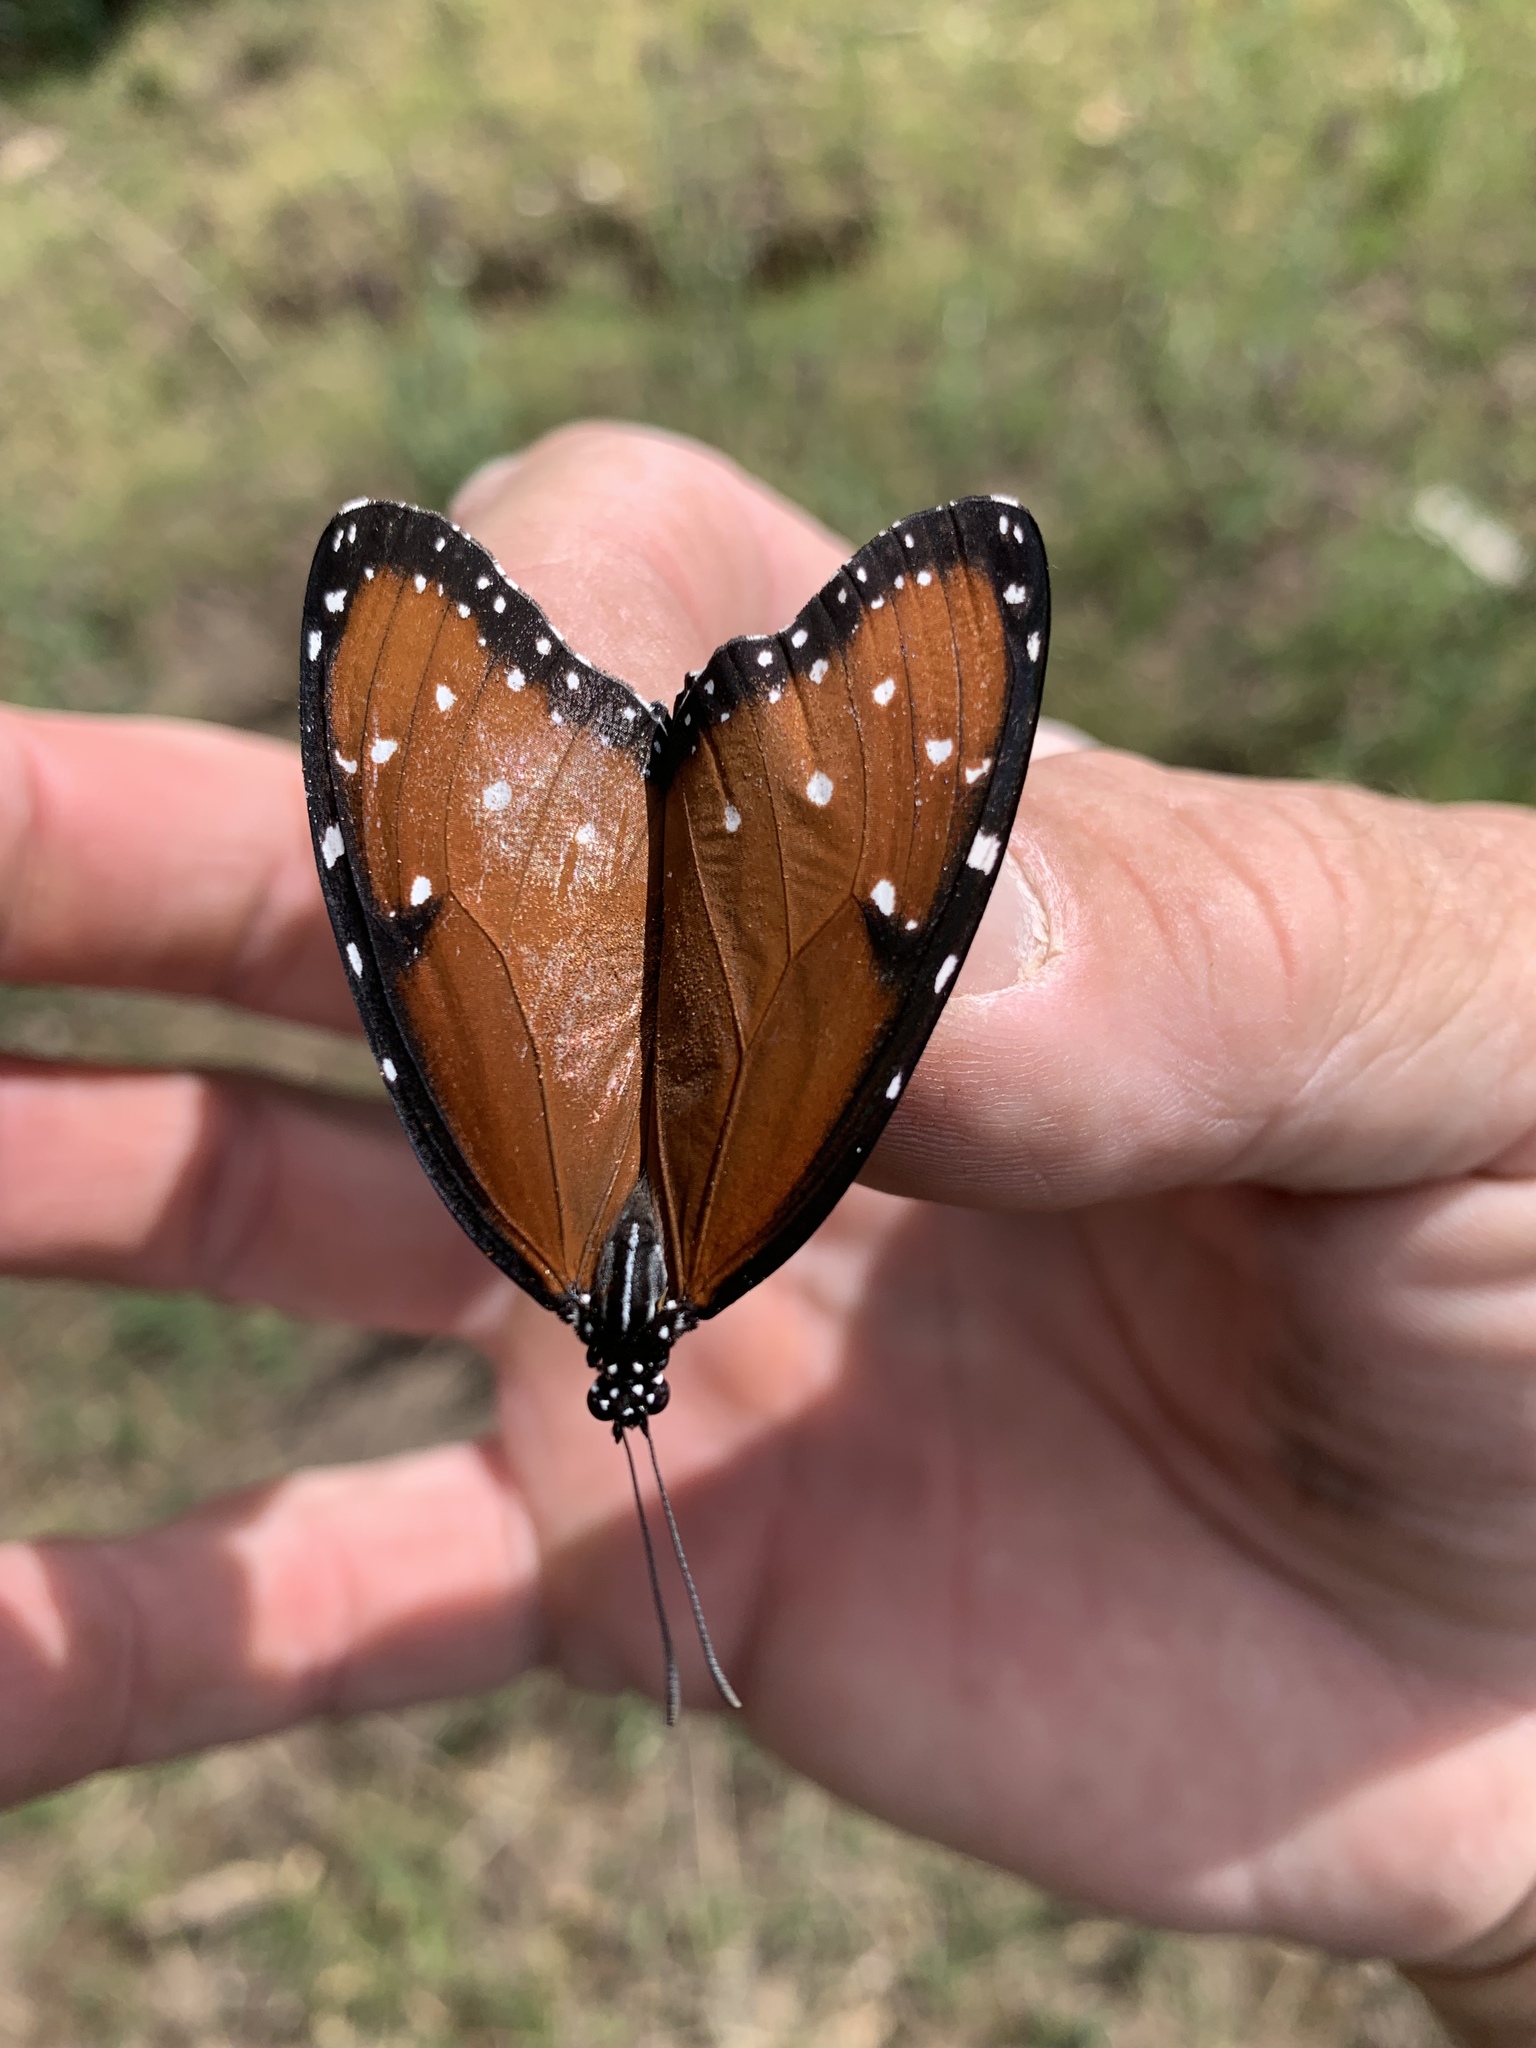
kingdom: Animalia
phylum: Arthropoda
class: Insecta
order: Lepidoptera
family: Nymphalidae
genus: Danaus
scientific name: Danaus gilippus
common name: Queen
